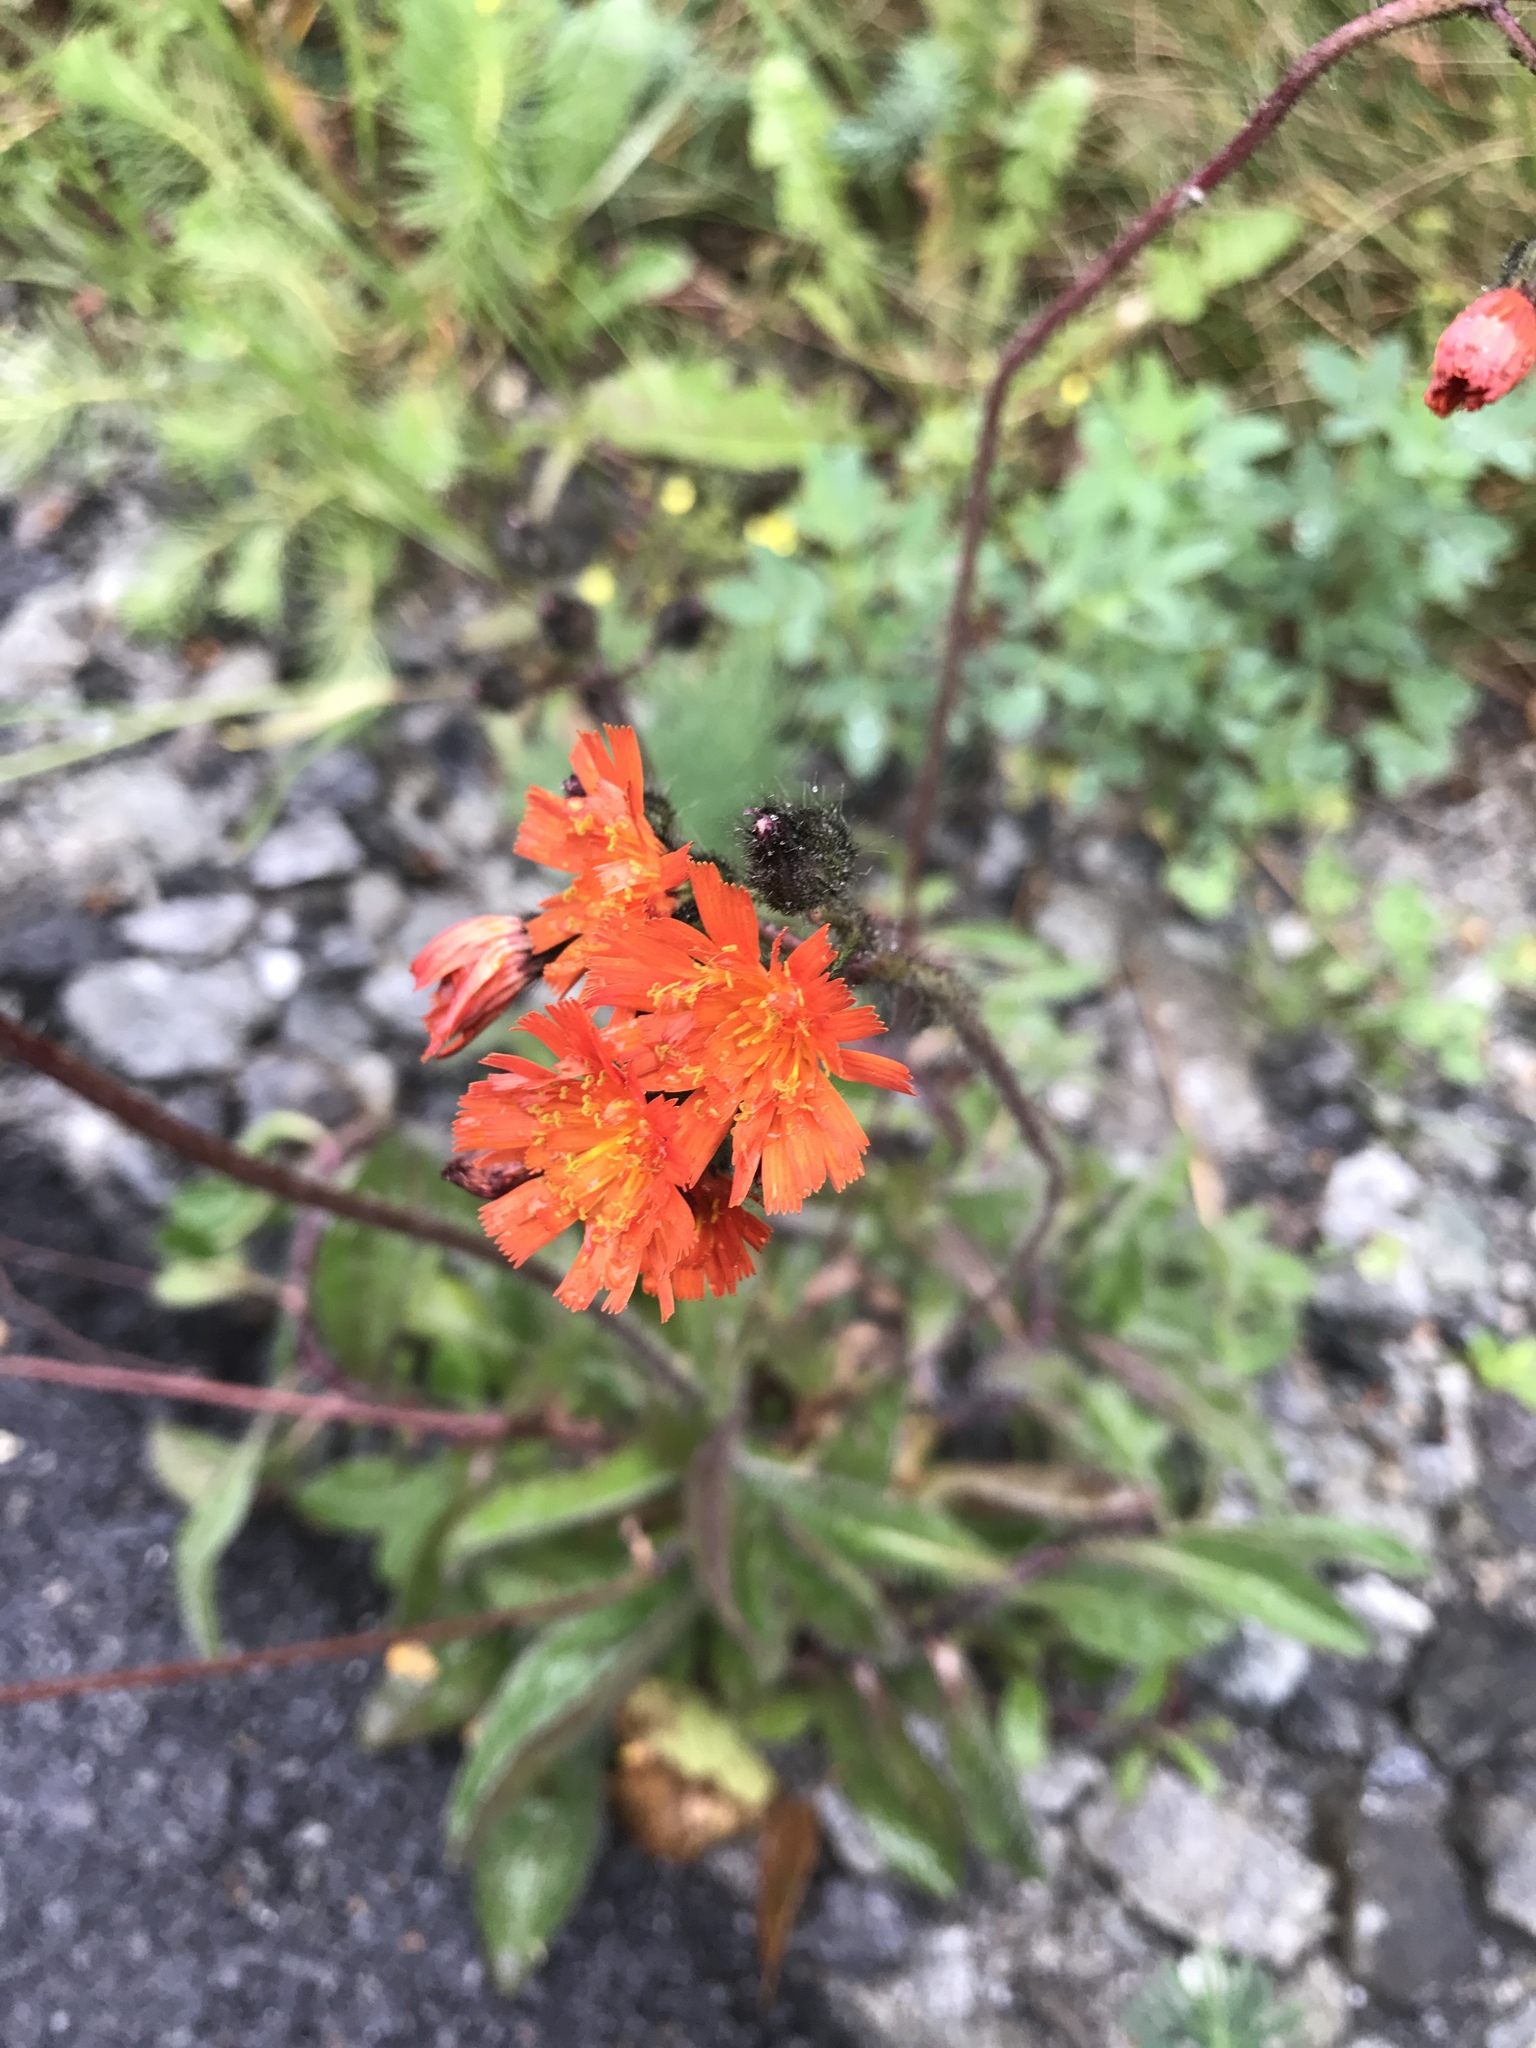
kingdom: Plantae
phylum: Tracheophyta
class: Magnoliopsida
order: Asterales
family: Asteraceae
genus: Pilosella
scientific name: Pilosella aurantiaca
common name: Fox-and-cubs
